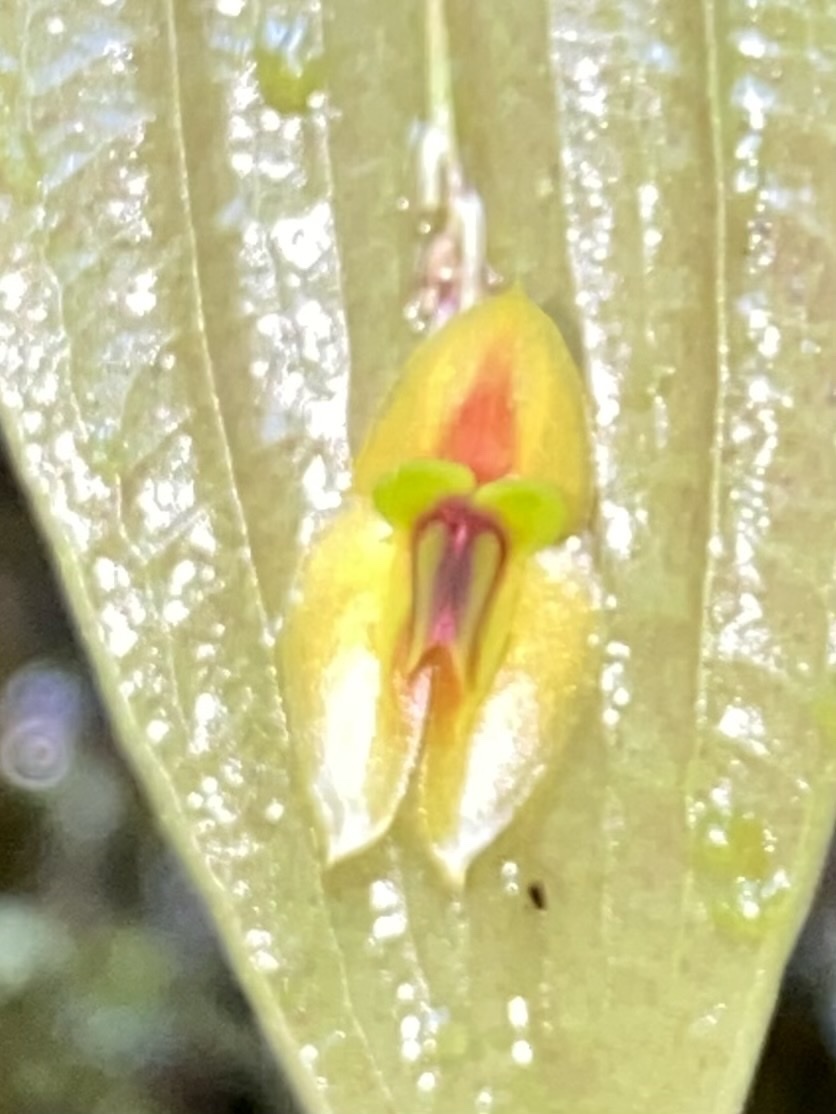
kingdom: Plantae
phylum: Tracheophyta
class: Liliopsida
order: Asparagales
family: Orchidaceae
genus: Lepanthes
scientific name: Lepanthes montezumae
